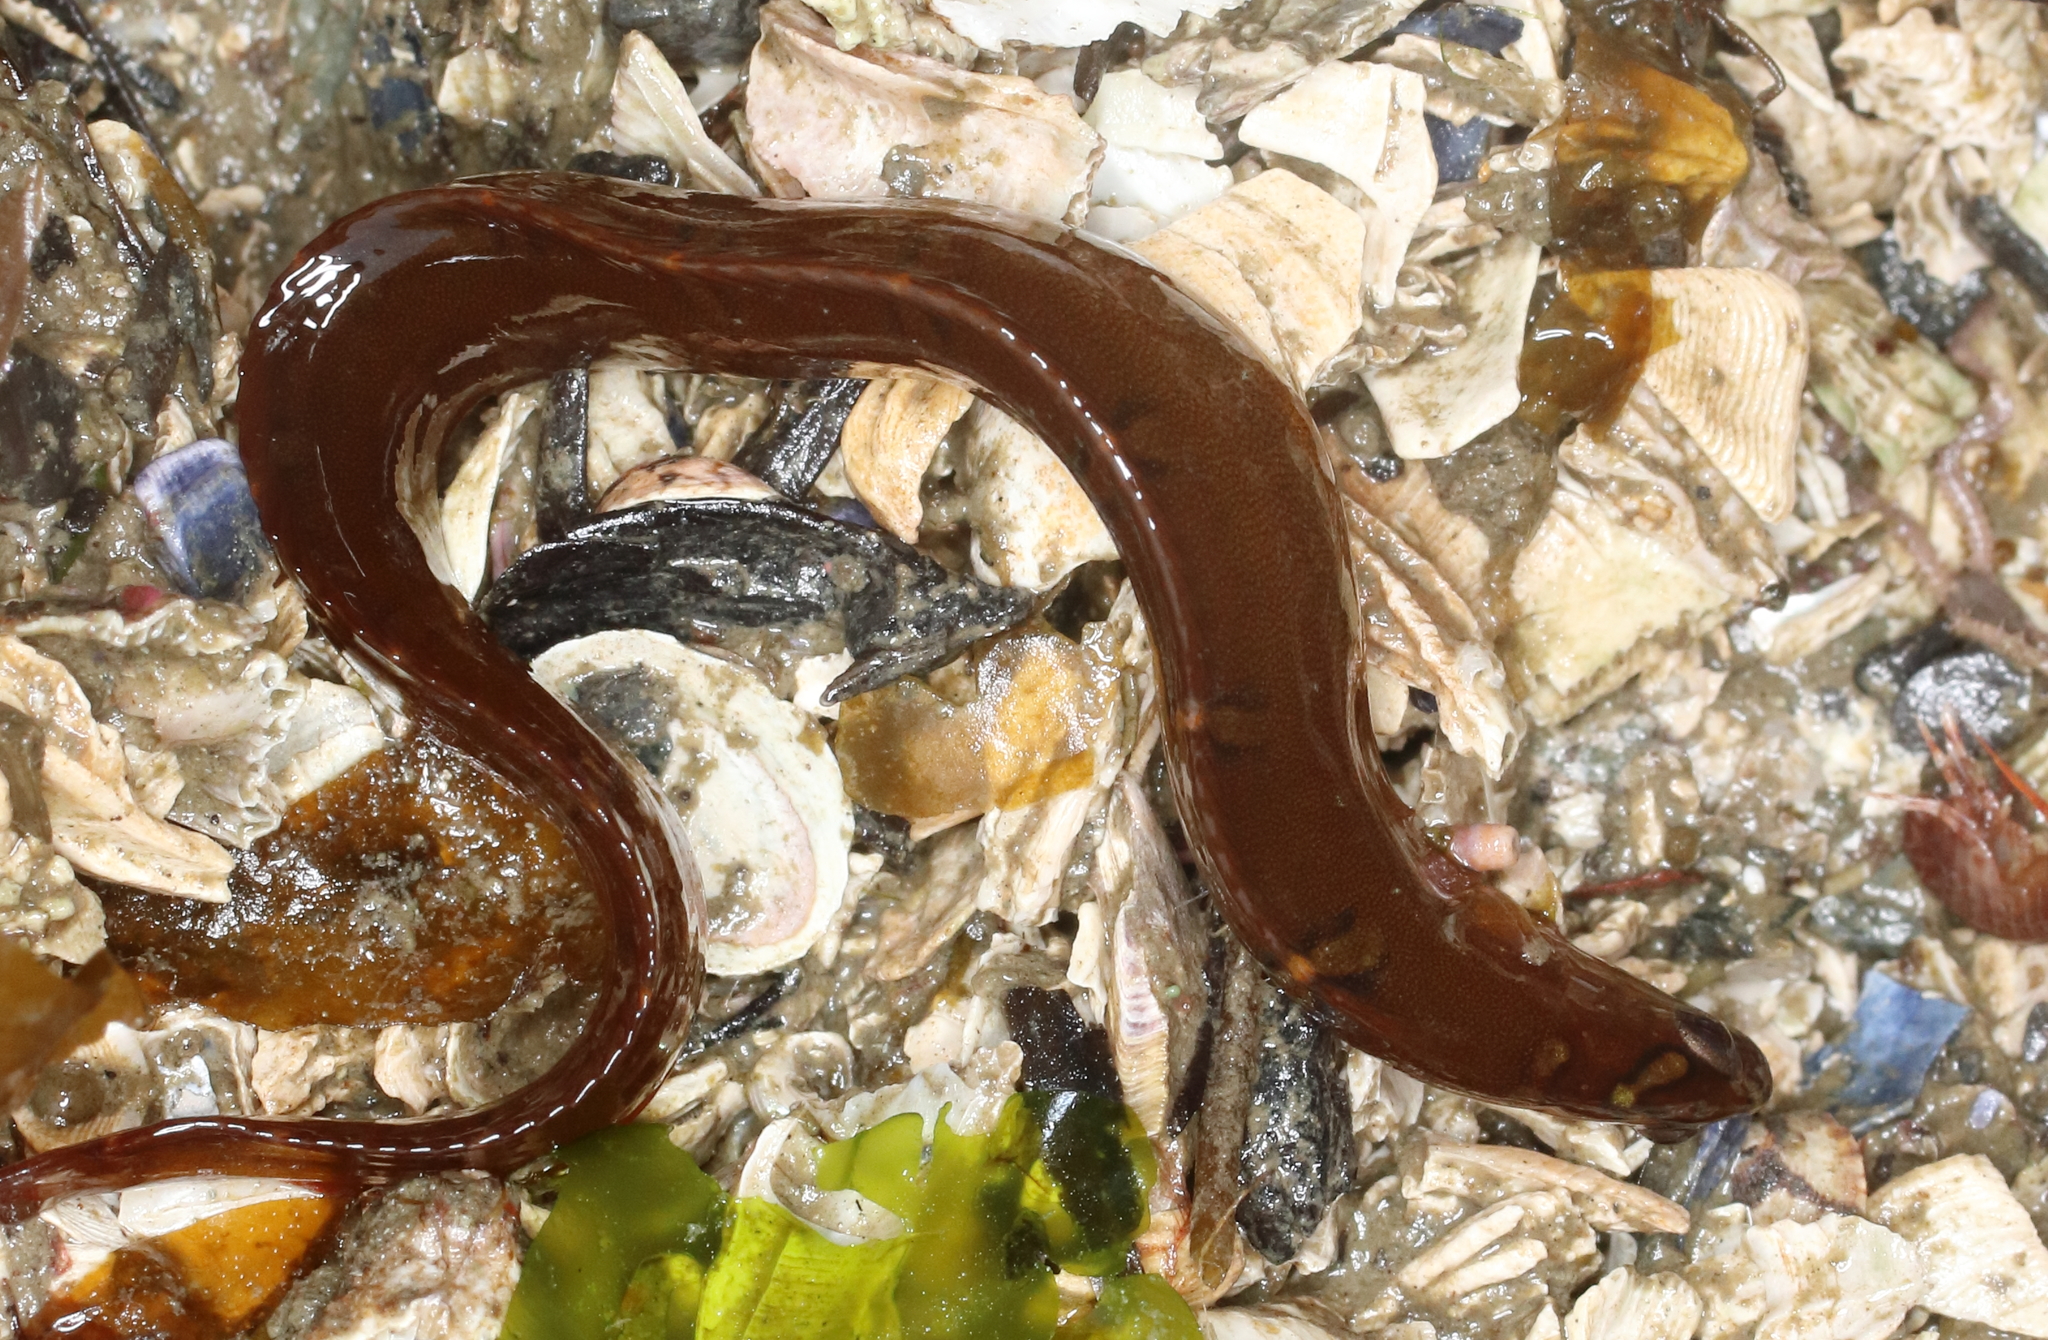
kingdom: Animalia
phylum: Chordata
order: Perciformes
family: Pholidae
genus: Pholis
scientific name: Pholis laeta
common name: Crescent gunnel
